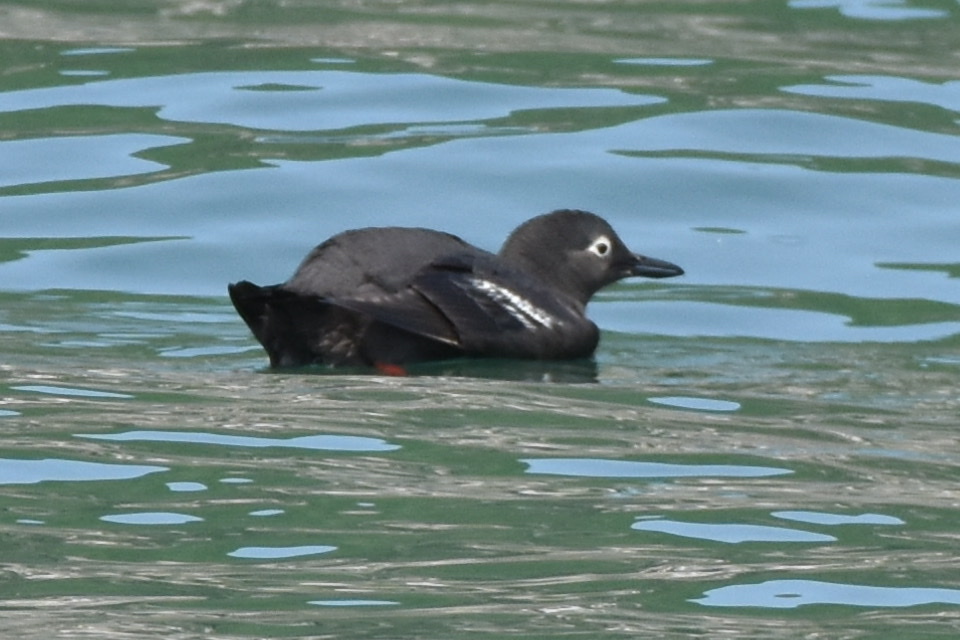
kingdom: Animalia
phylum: Chordata
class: Aves
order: Charadriiformes
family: Alcidae
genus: Cepphus
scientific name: Cepphus carbo
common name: Spectacled guillemot
